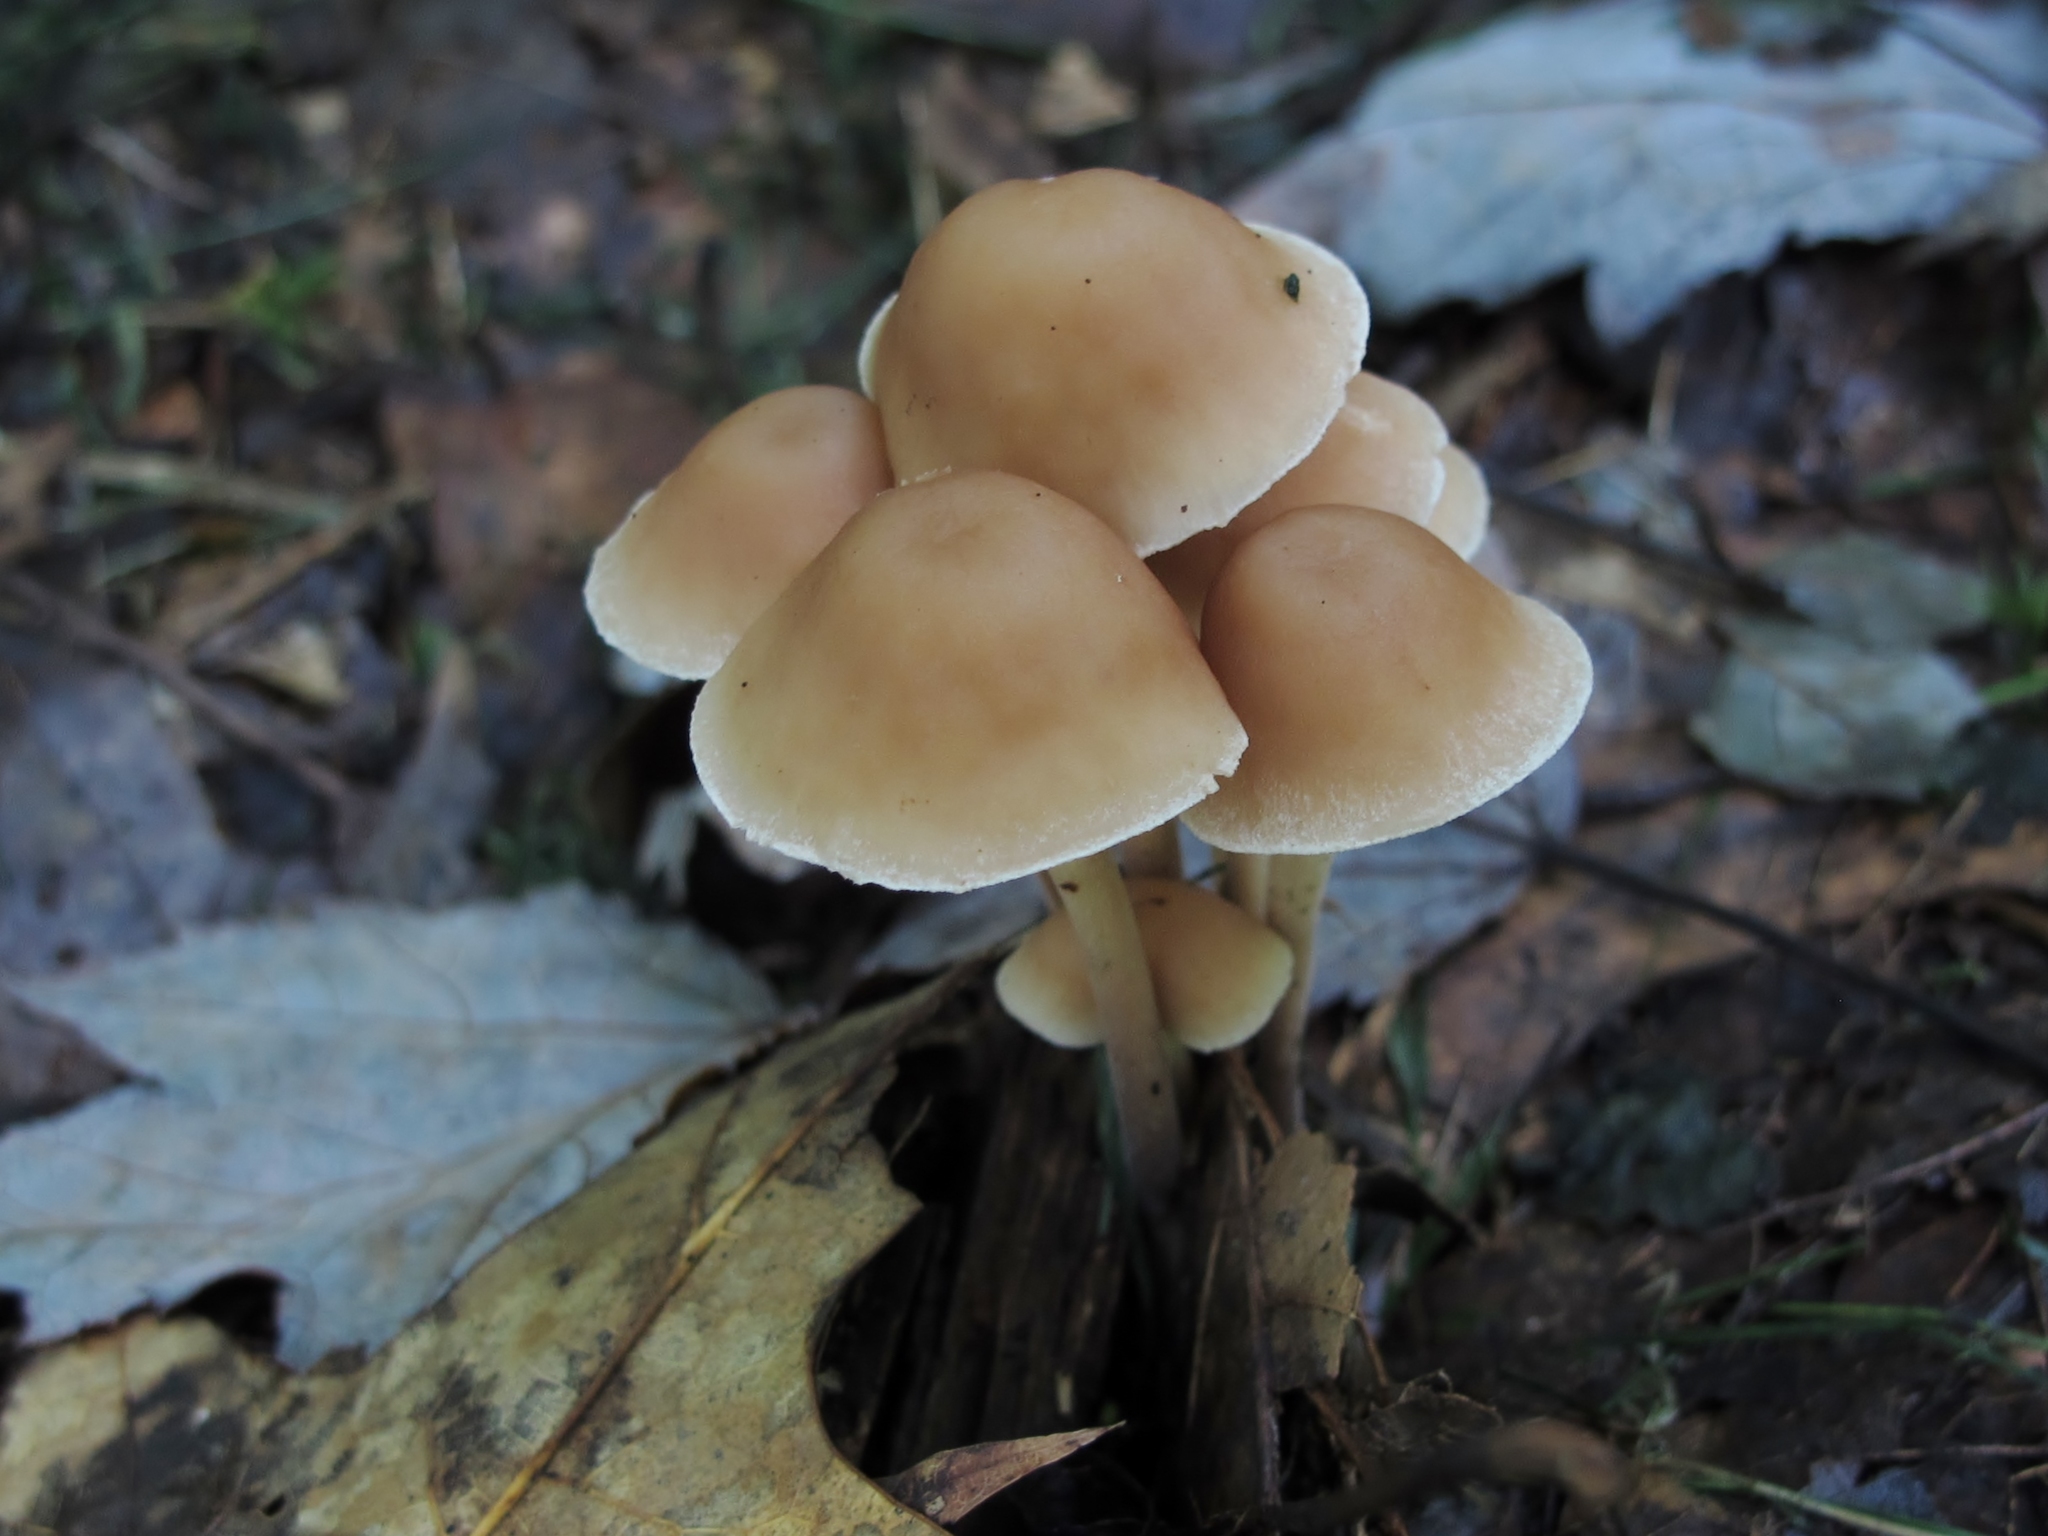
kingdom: Fungi
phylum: Basidiomycota
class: Agaricomycetes
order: Agaricales
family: Omphalotaceae
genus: Collybiopsis
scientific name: Collybiopsis confluens
